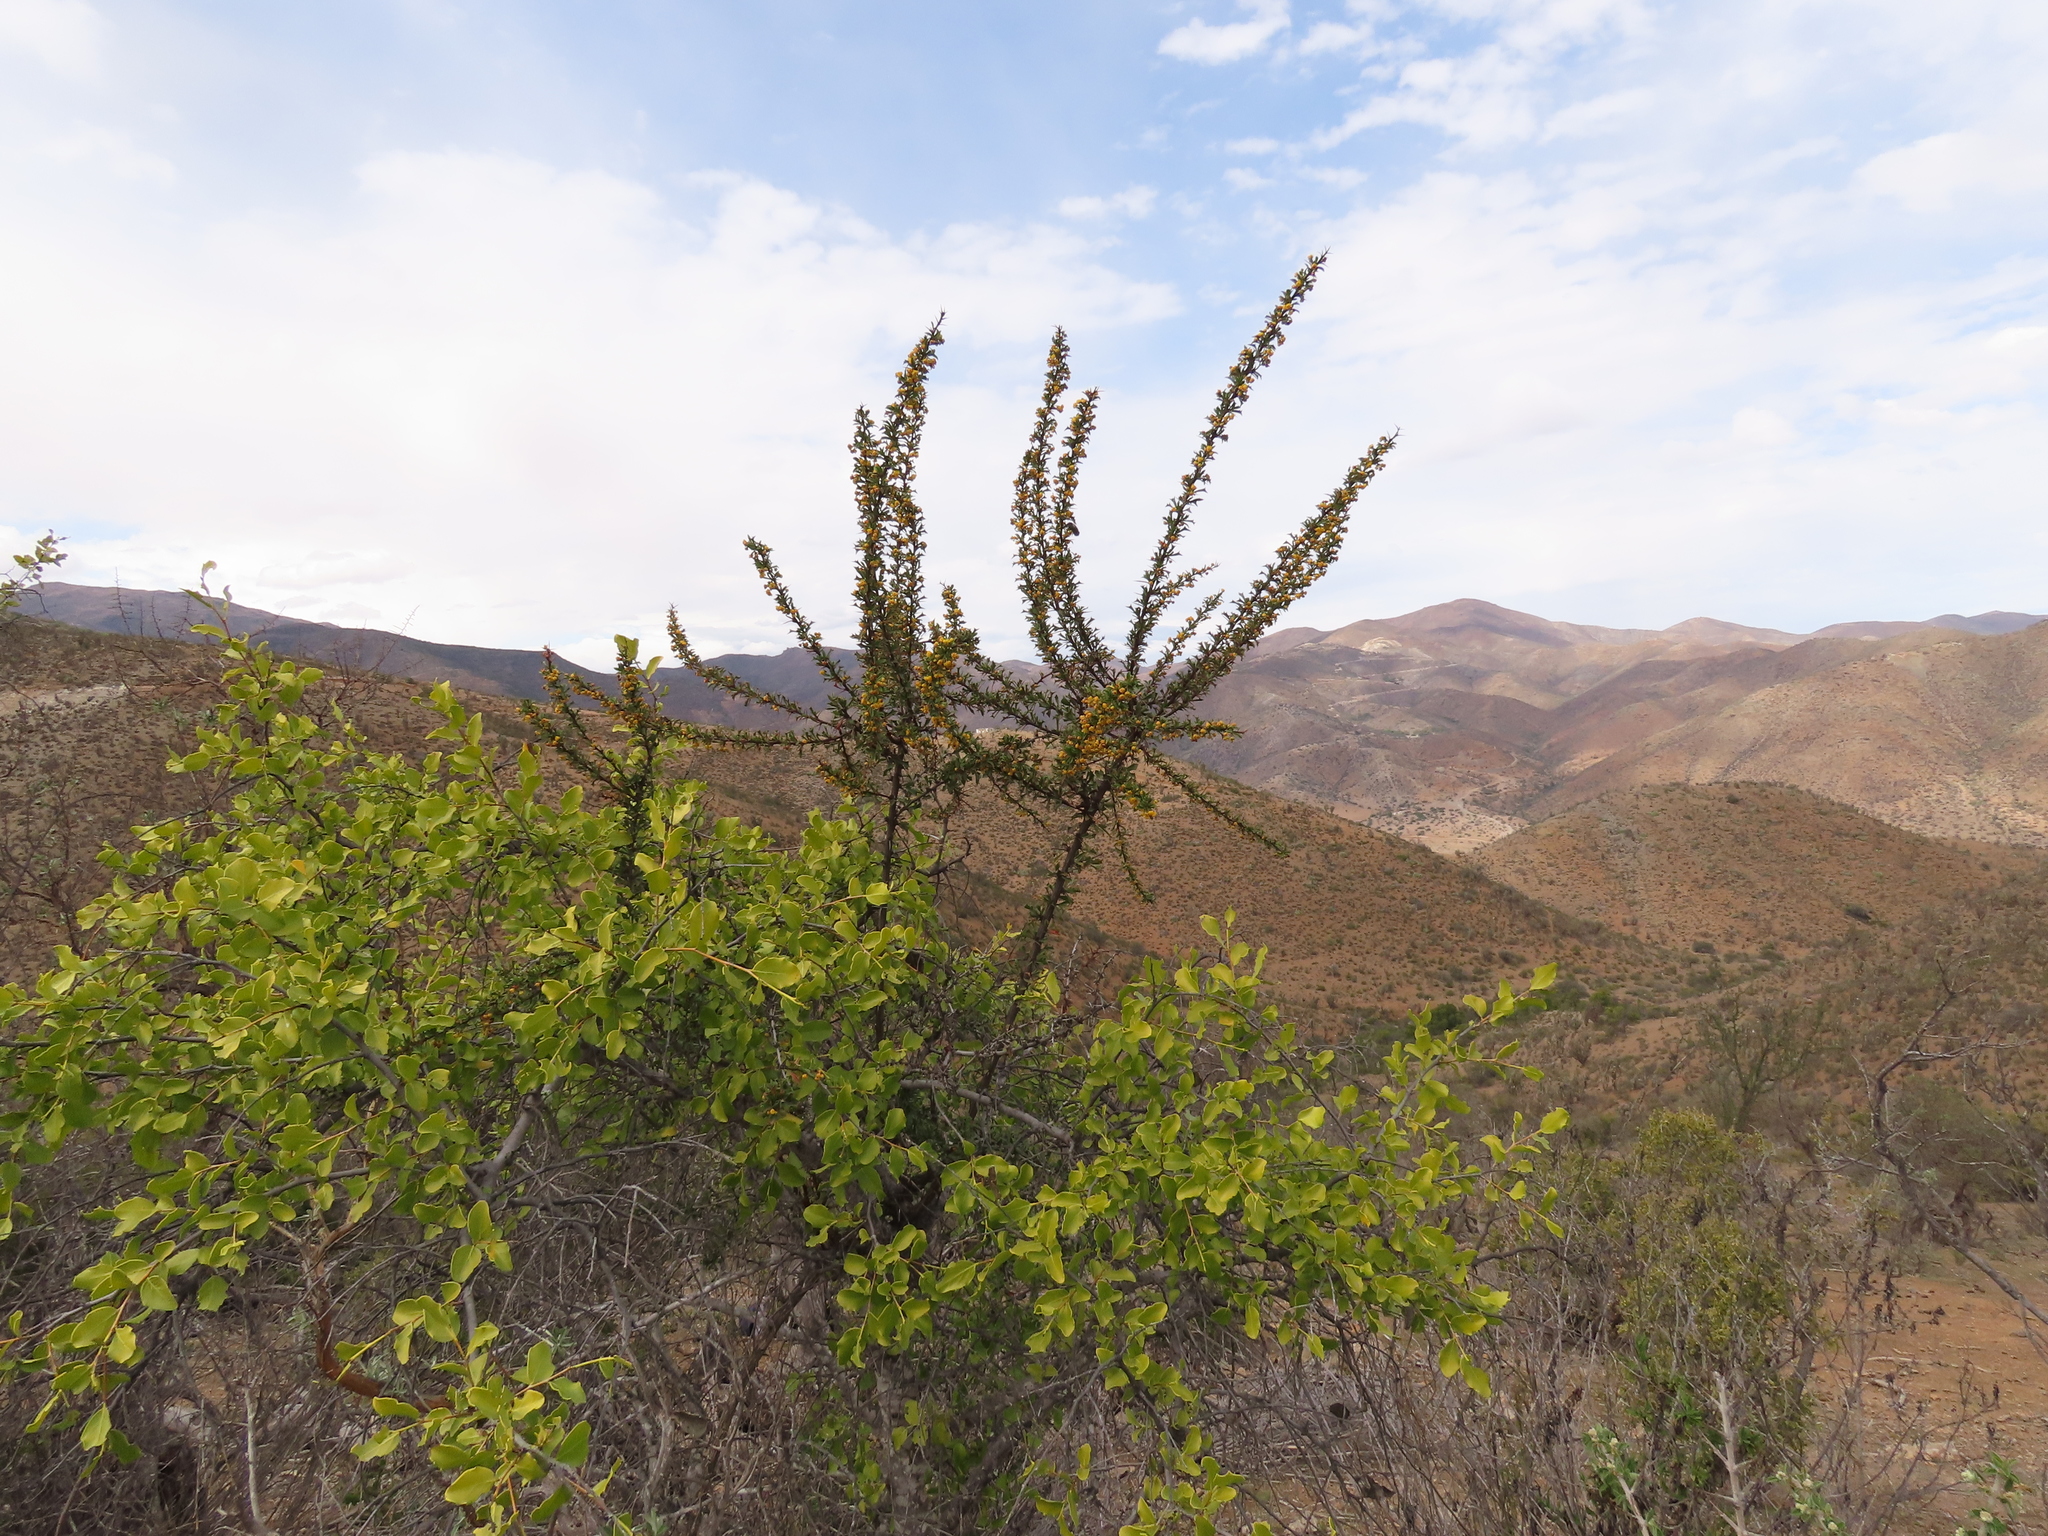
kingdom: Plantae
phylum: Tracheophyta
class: Magnoliopsida
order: Ranunculales
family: Berberidaceae
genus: Berberis
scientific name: Berberis glomerata
